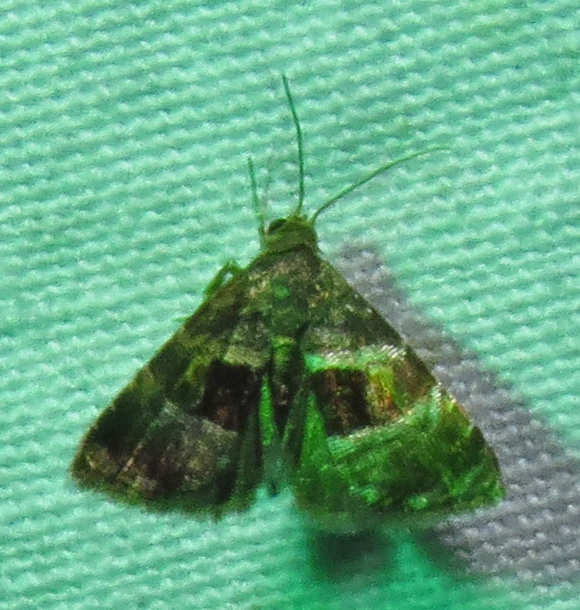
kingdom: Animalia
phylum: Arthropoda
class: Insecta
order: Lepidoptera
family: Noctuidae
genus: Tripudia
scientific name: Tripudia rectangula
